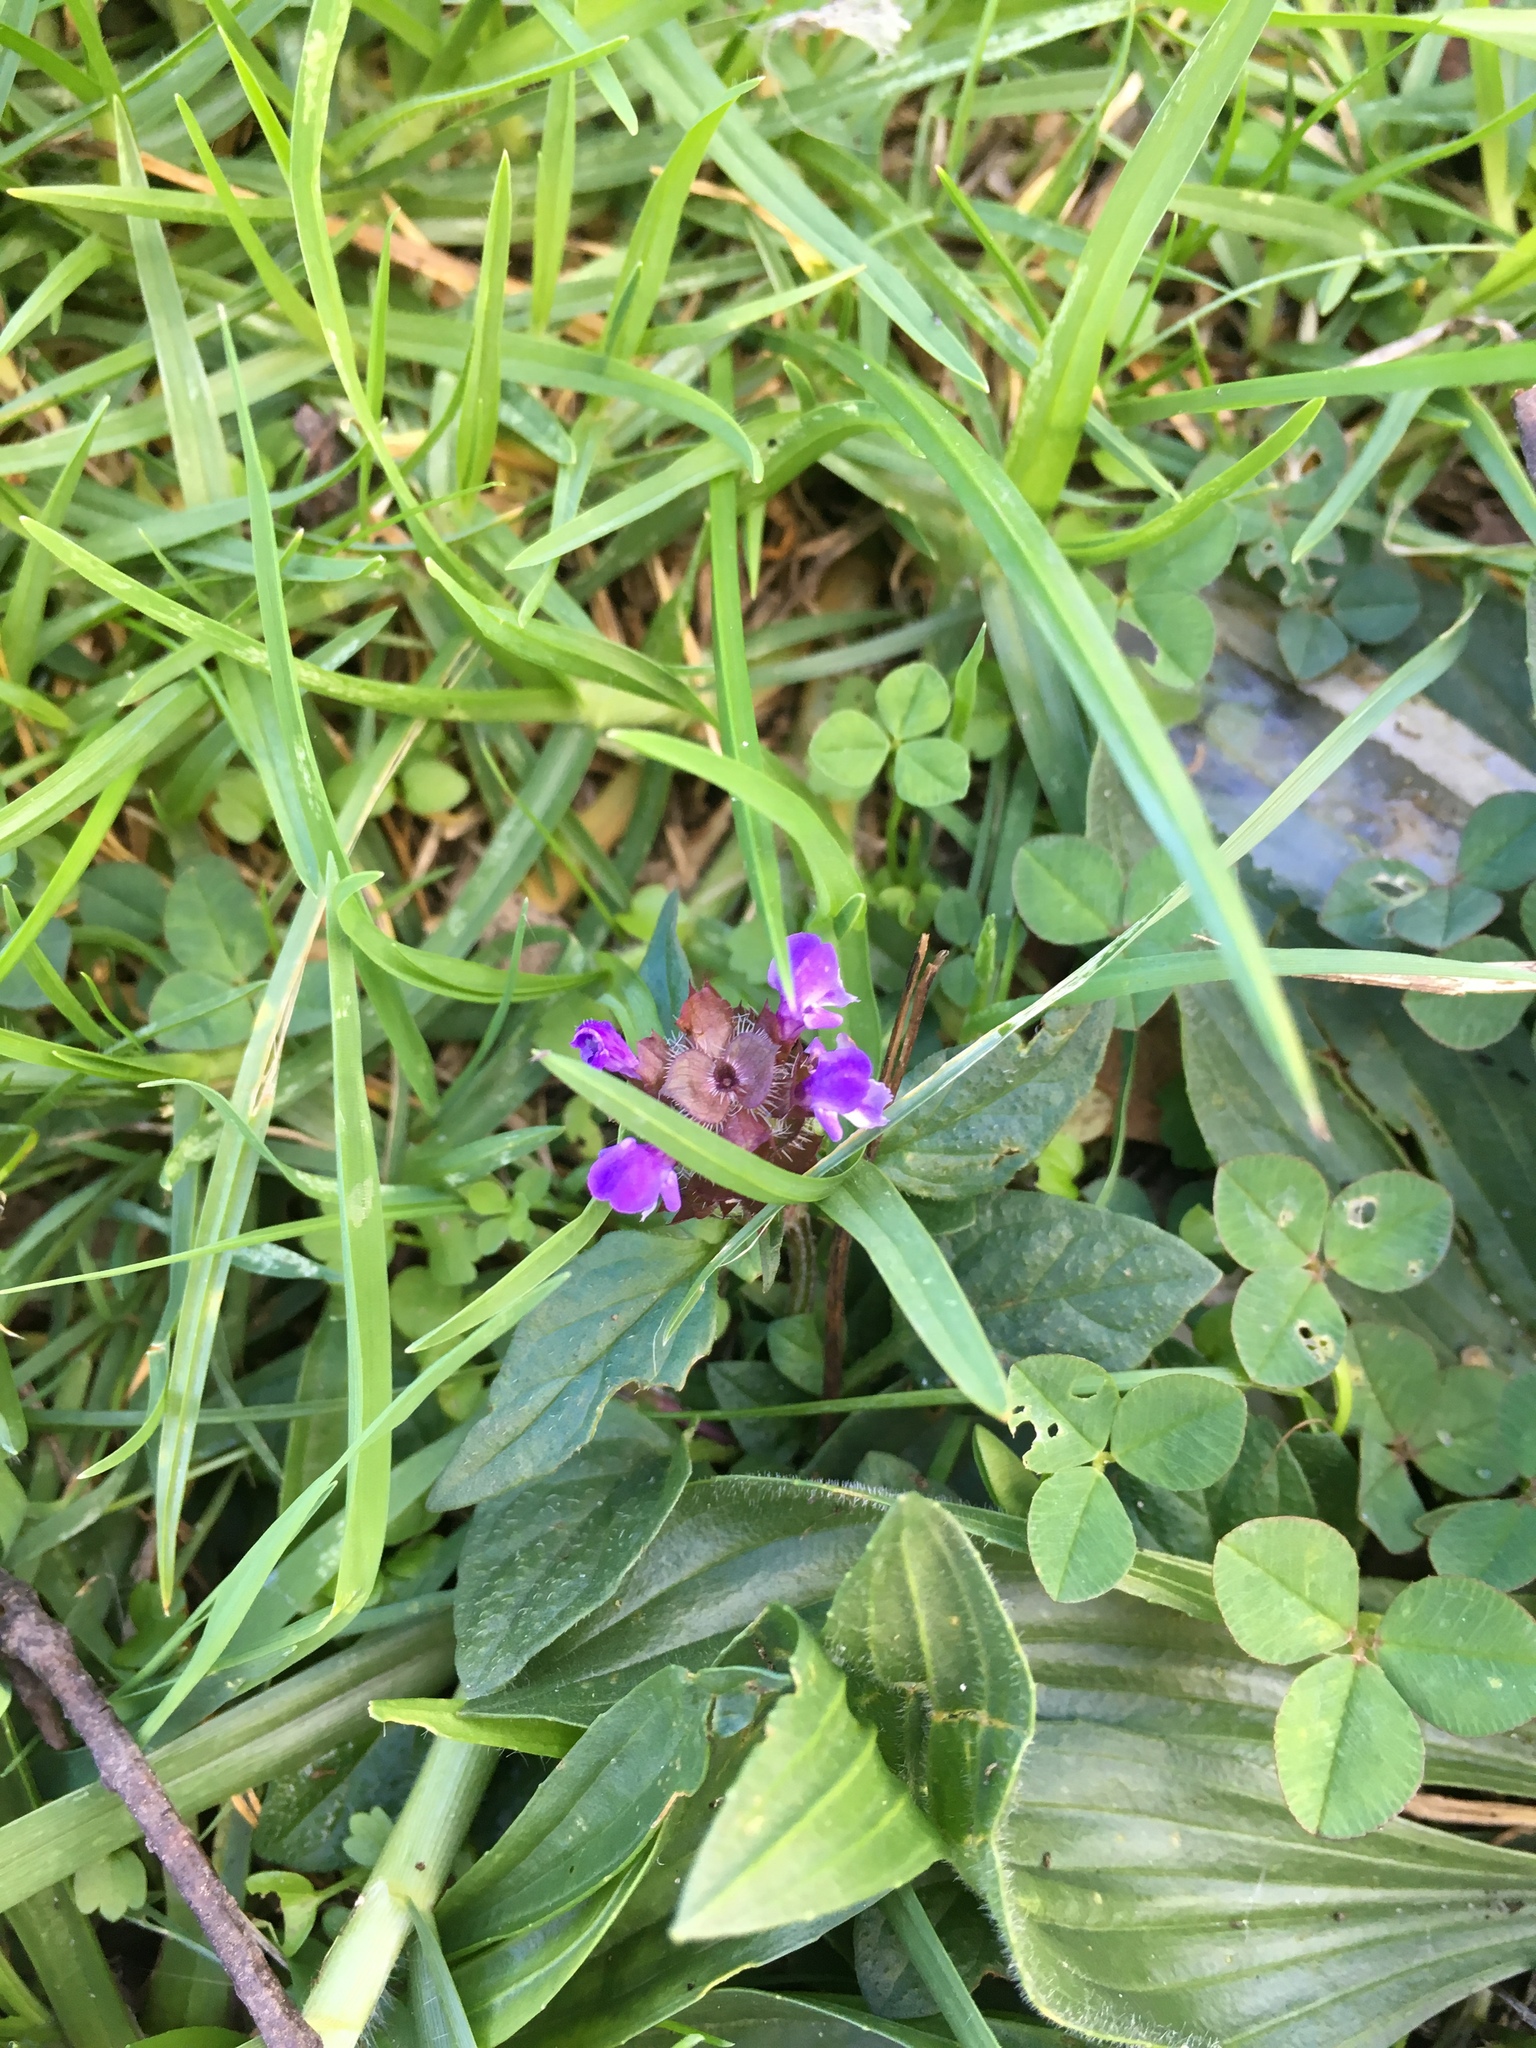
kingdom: Plantae
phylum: Tracheophyta
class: Magnoliopsida
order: Lamiales
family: Lamiaceae
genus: Prunella
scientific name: Prunella vulgaris
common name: Heal-all
